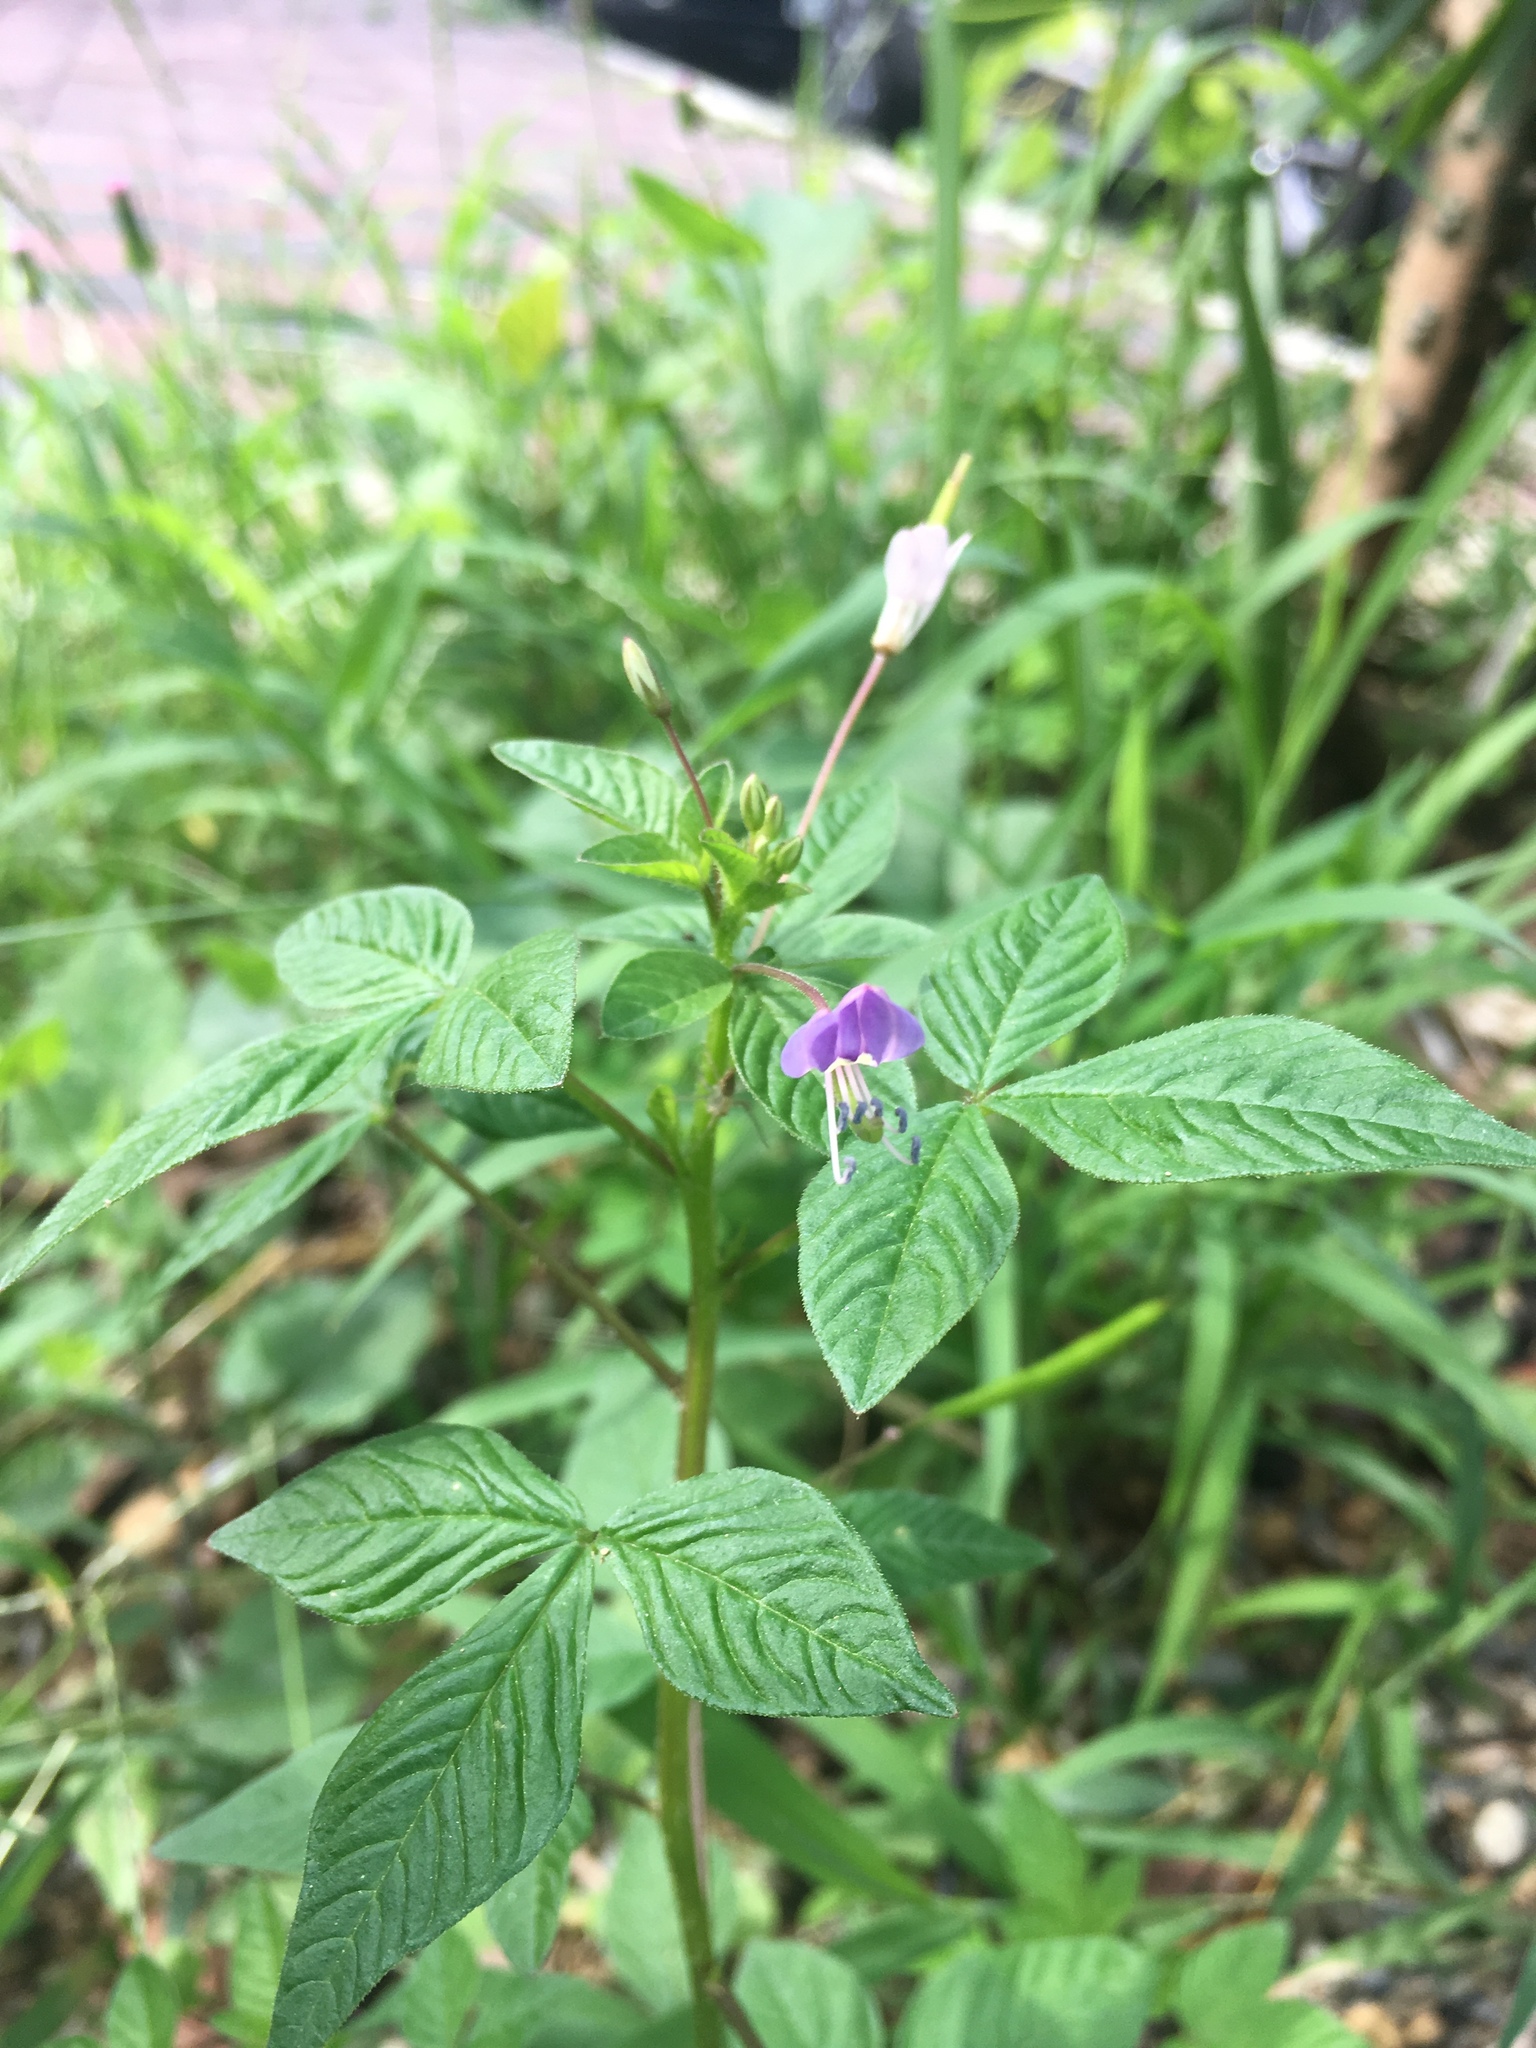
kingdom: Plantae
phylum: Tracheophyta
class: Magnoliopsida
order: Brassicales
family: Cleomaceae
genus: Sieruela
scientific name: Sieruela rutidosperma
